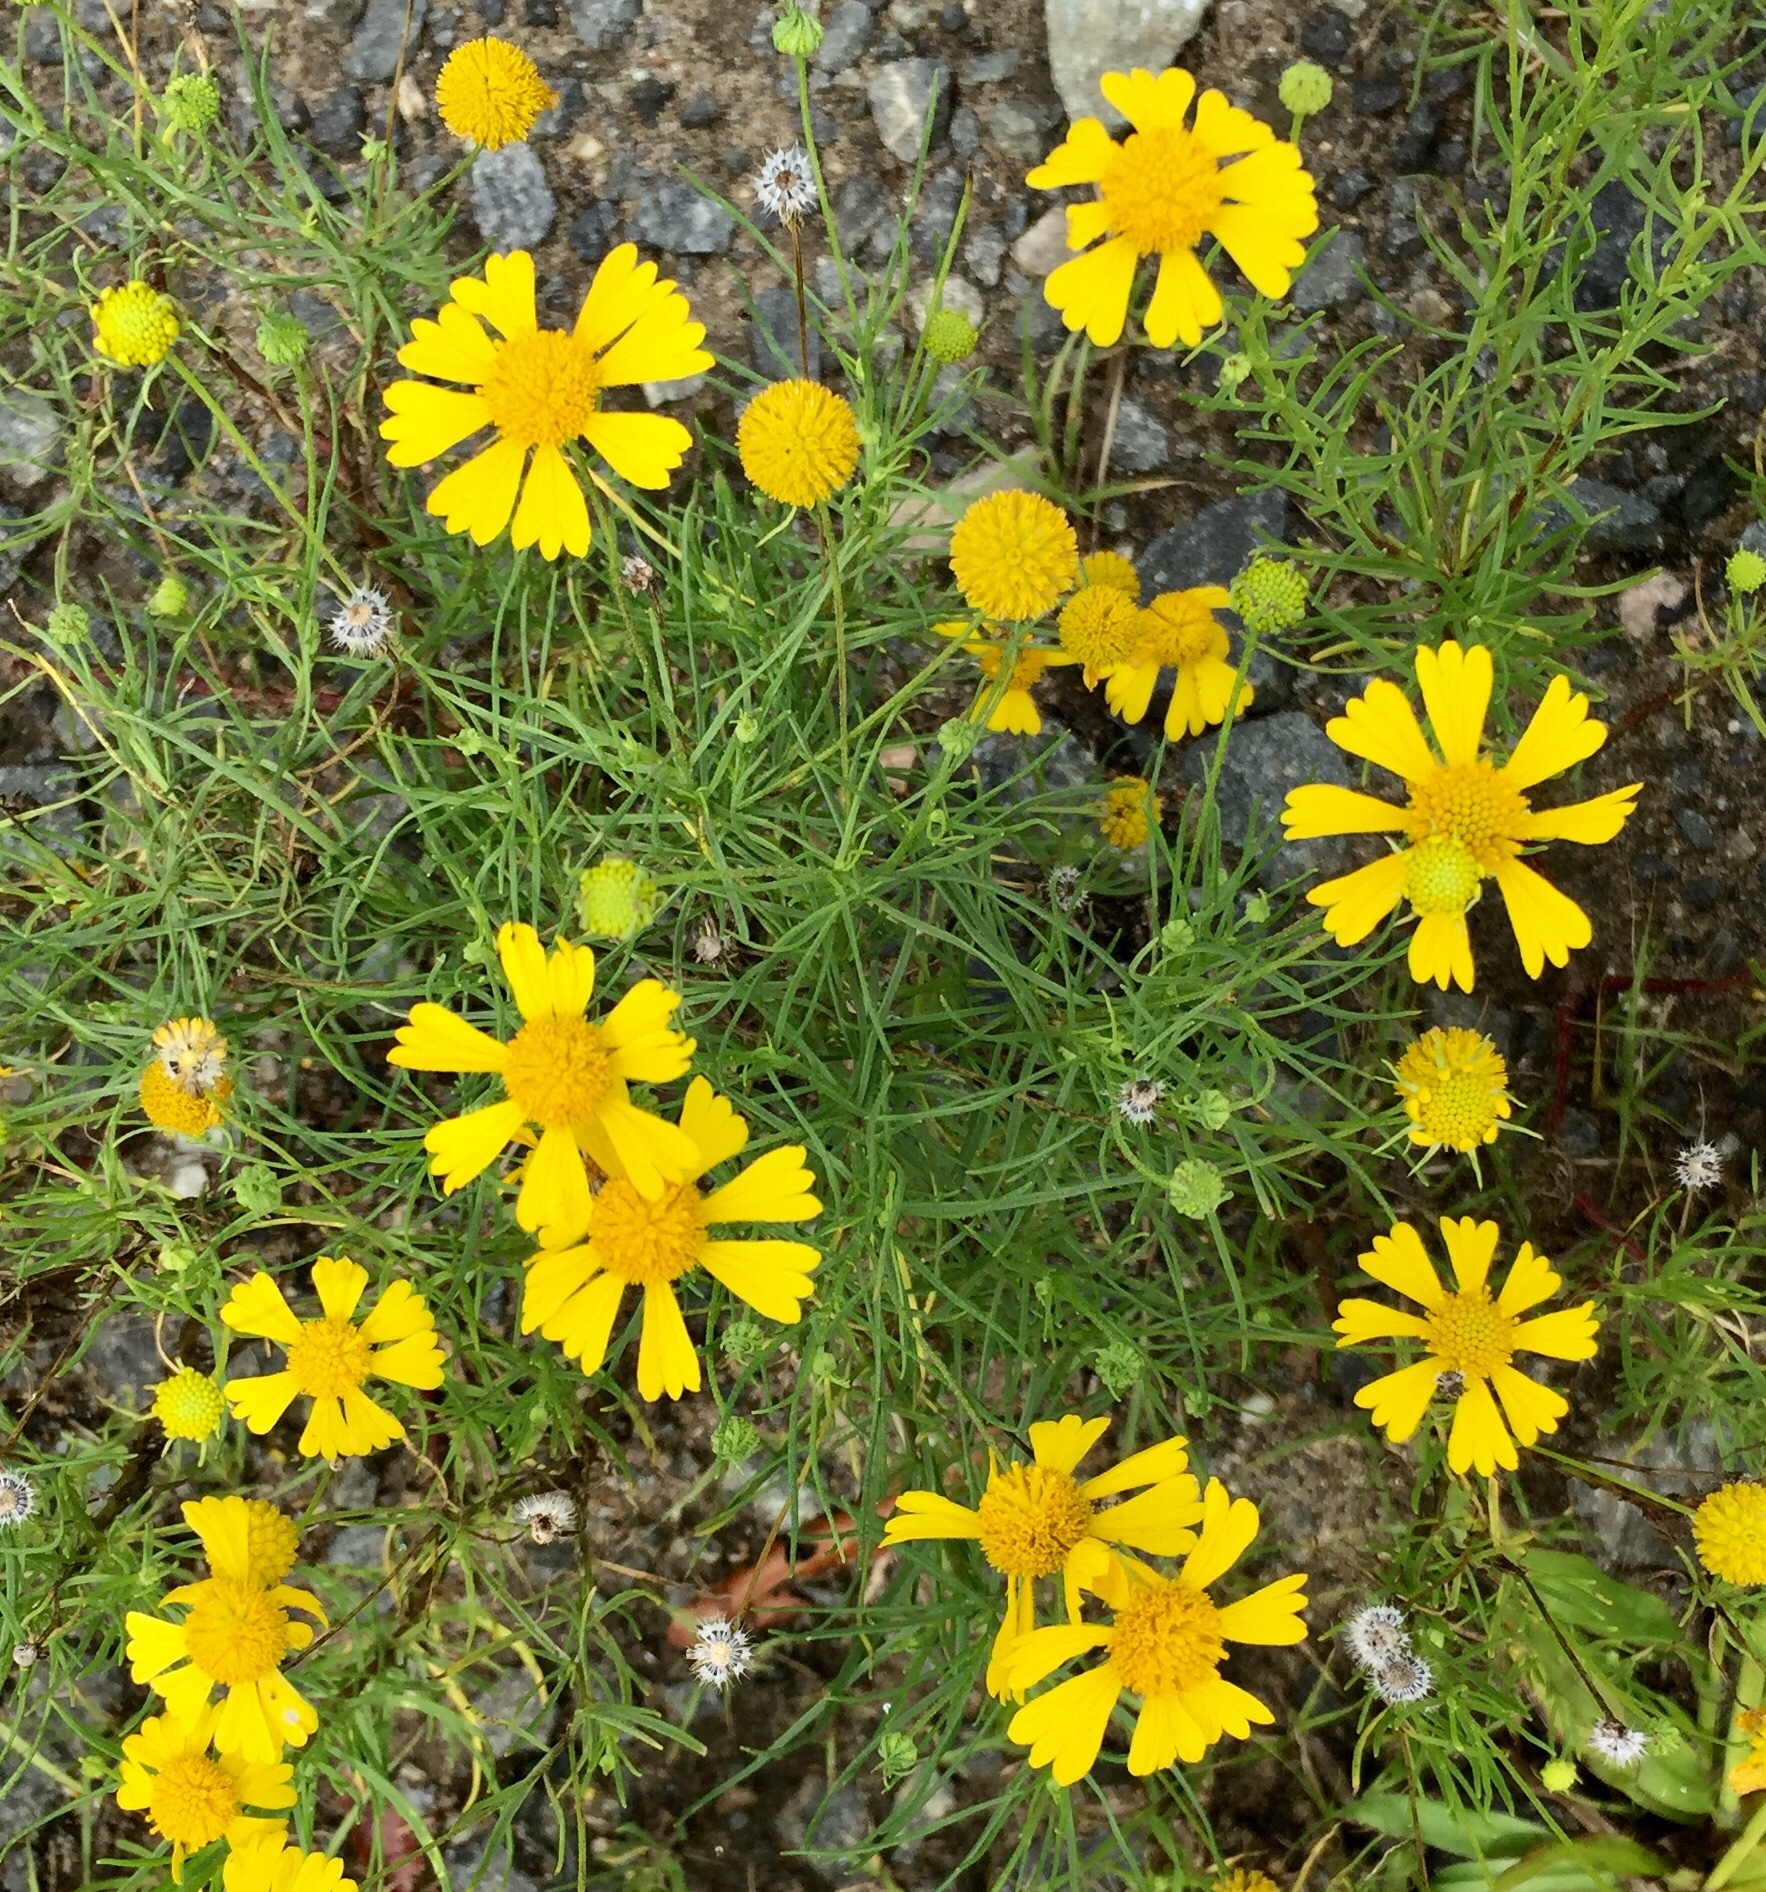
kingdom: Plantae
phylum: Tracheophyta
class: Magnoliopsida
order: Asterales
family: Asteraceae
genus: Helenium
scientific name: Helenium amarum
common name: Bitter sneezeweed
